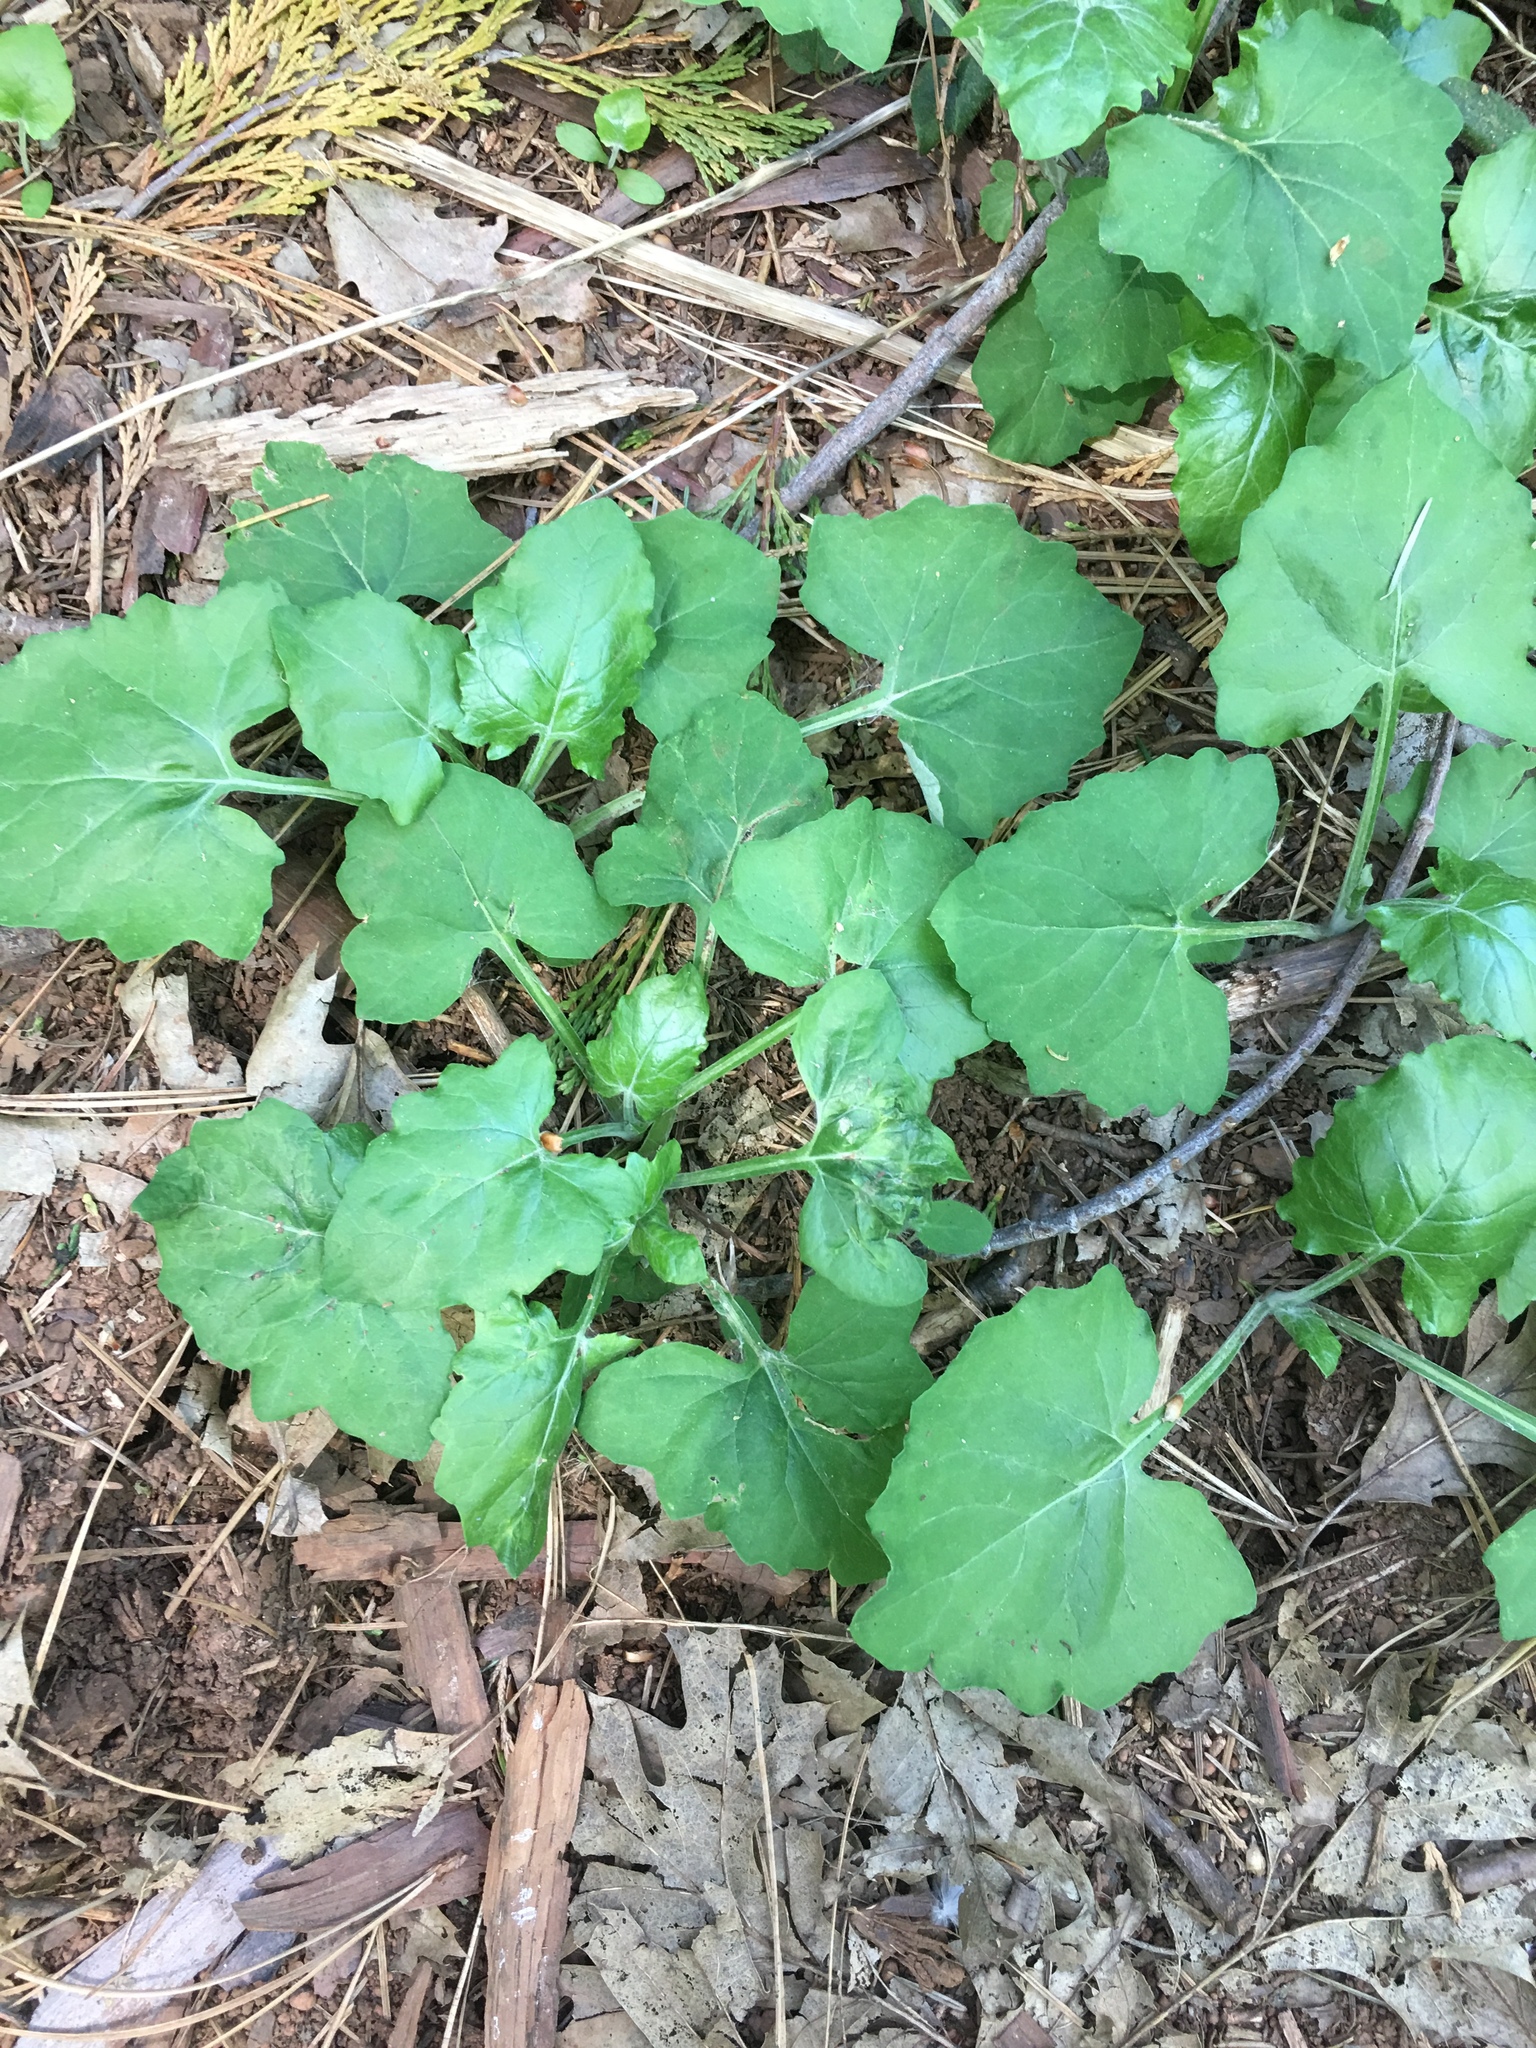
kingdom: Plantae
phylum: Tracheophyta
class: Magnoliopsida
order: Asterales
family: Asteraceae
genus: Adenocaulon
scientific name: Adenocaulon bicolor
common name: Trailplant
